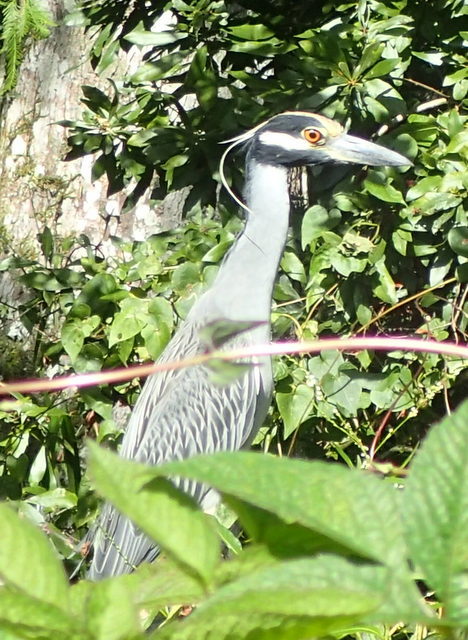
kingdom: Animalia
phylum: Chordata
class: Aves
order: Pelecaniformes
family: Ardeidae
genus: Nyctanassa
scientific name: Nyctanassa violacea
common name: Yellow-crowned night heron
